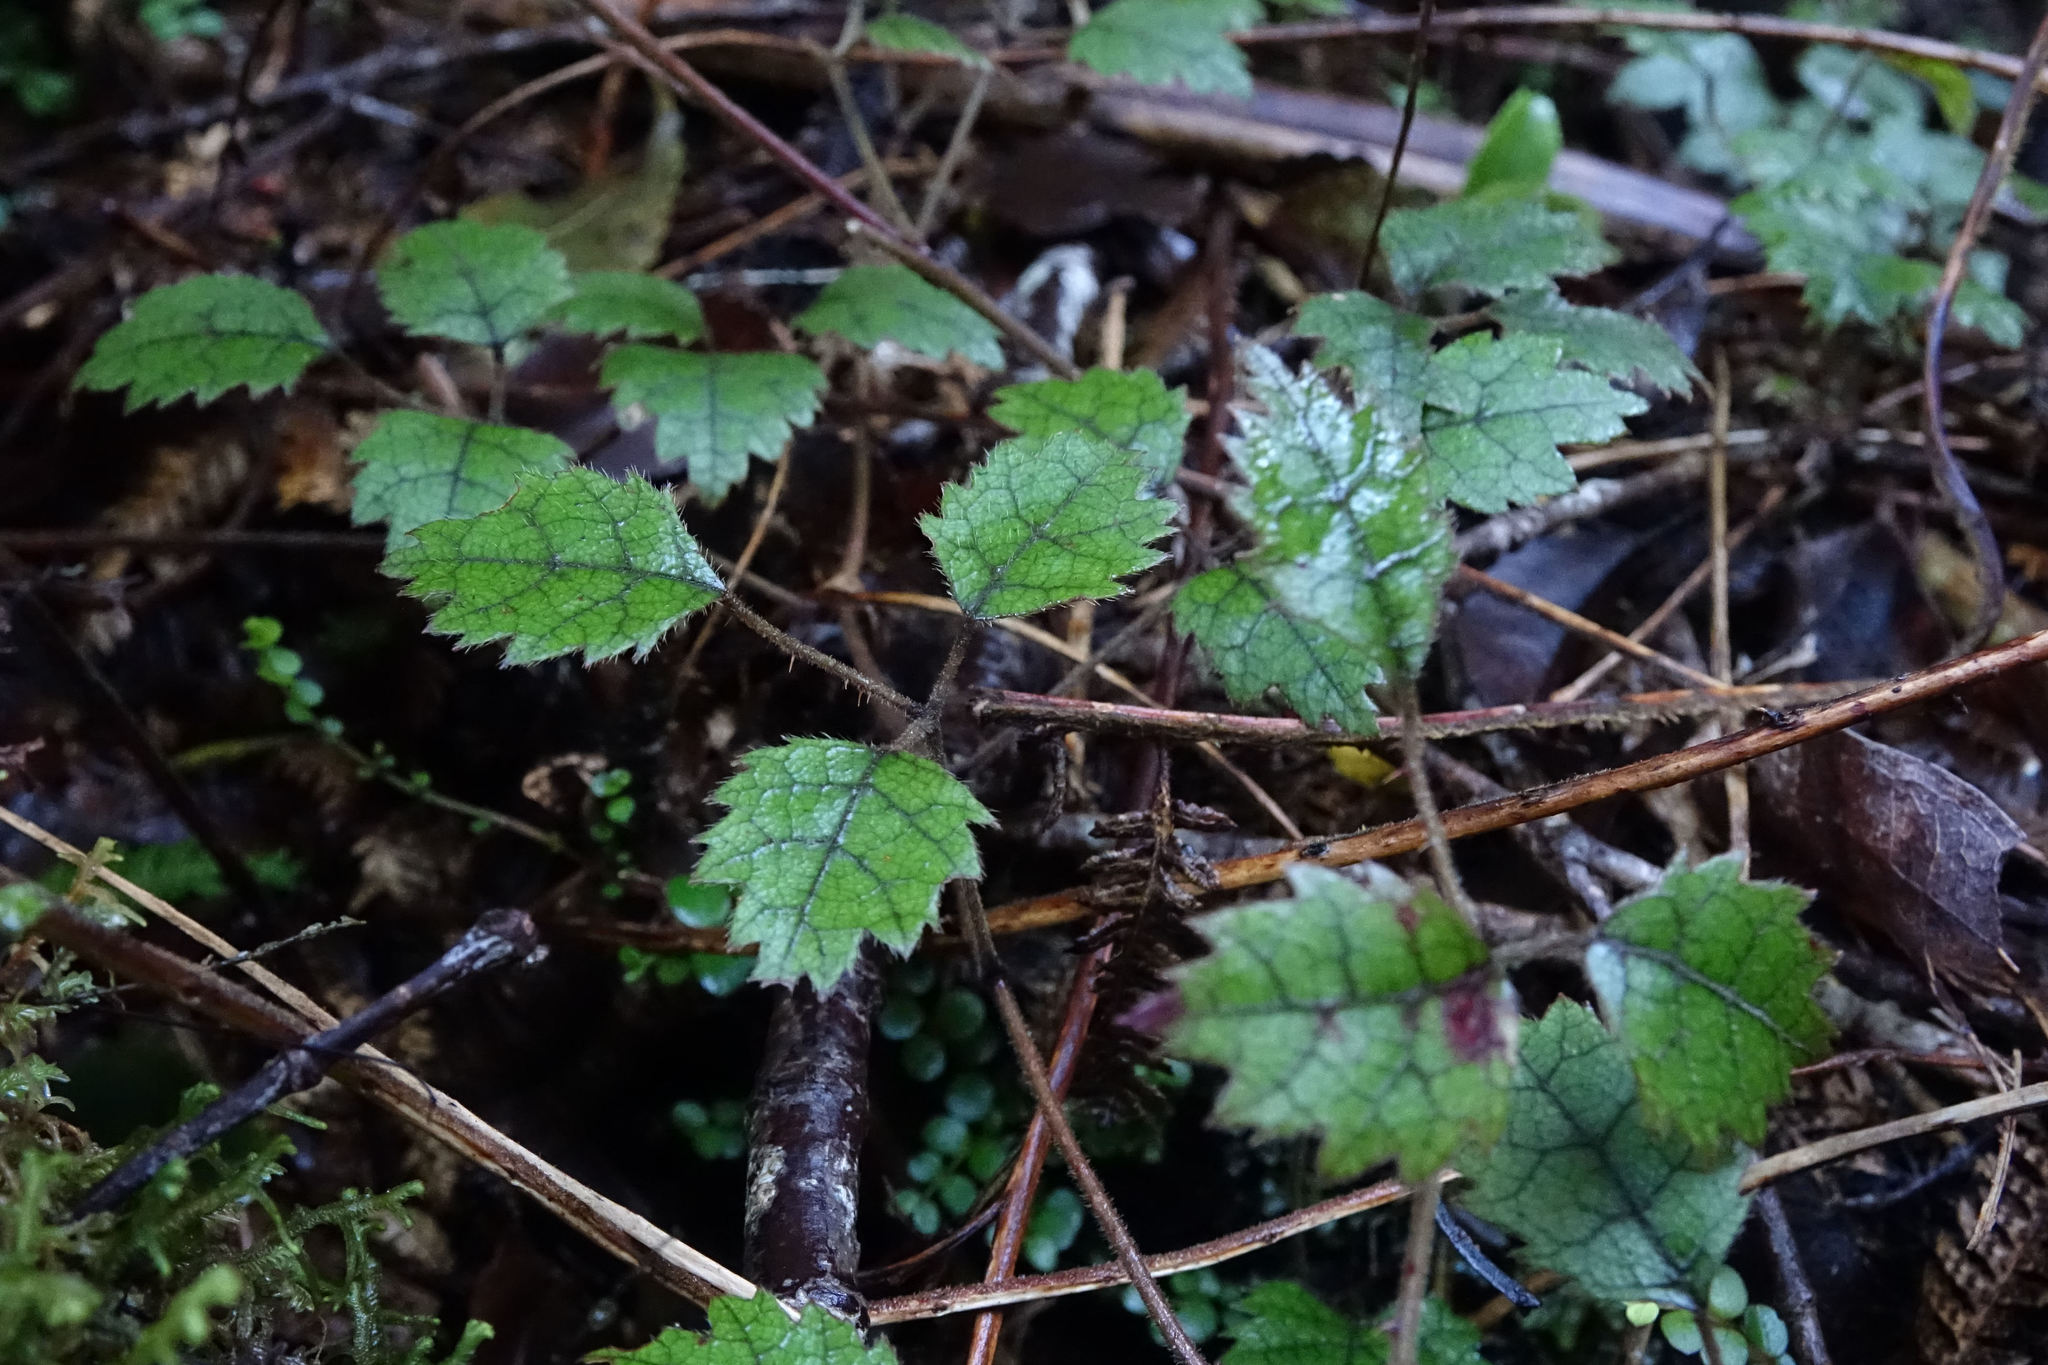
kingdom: Plantae
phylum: Tracheophyta
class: Magnoliopsida
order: Rosales
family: Rosaceae
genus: Rubus
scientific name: Rubus australis
